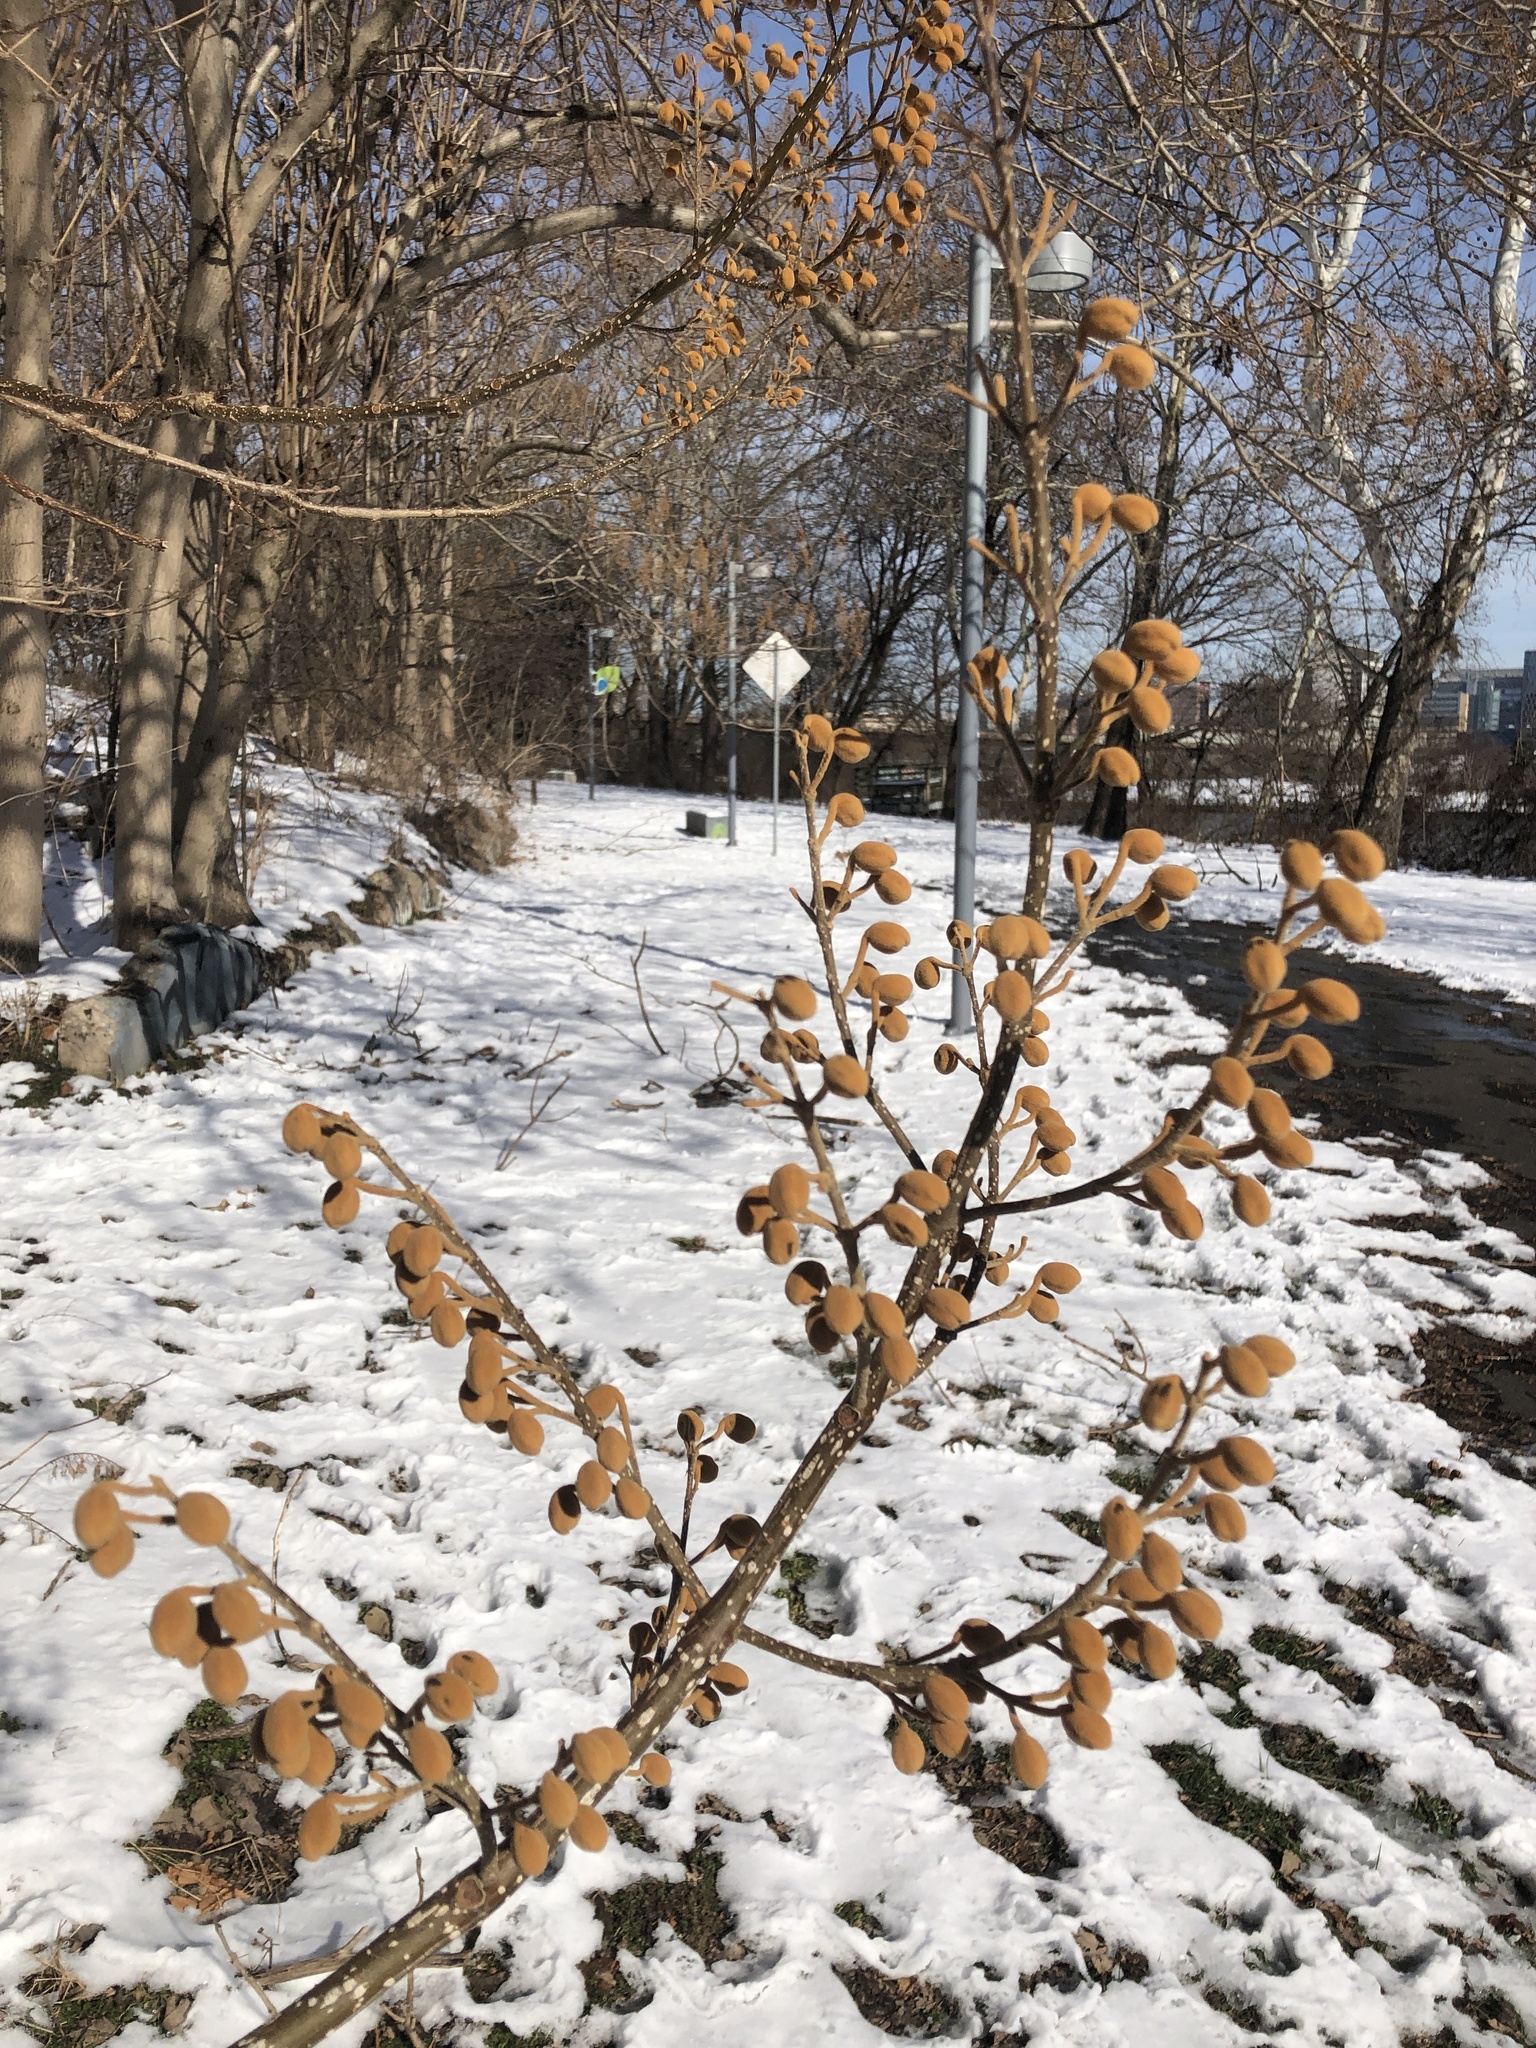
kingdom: Plantae
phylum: Tracheophyta
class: Magnoliopsida
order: Lamiales
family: Paulowniaceae
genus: Paulownia
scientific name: Paulownia tomentosa
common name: Foxglove-tree
